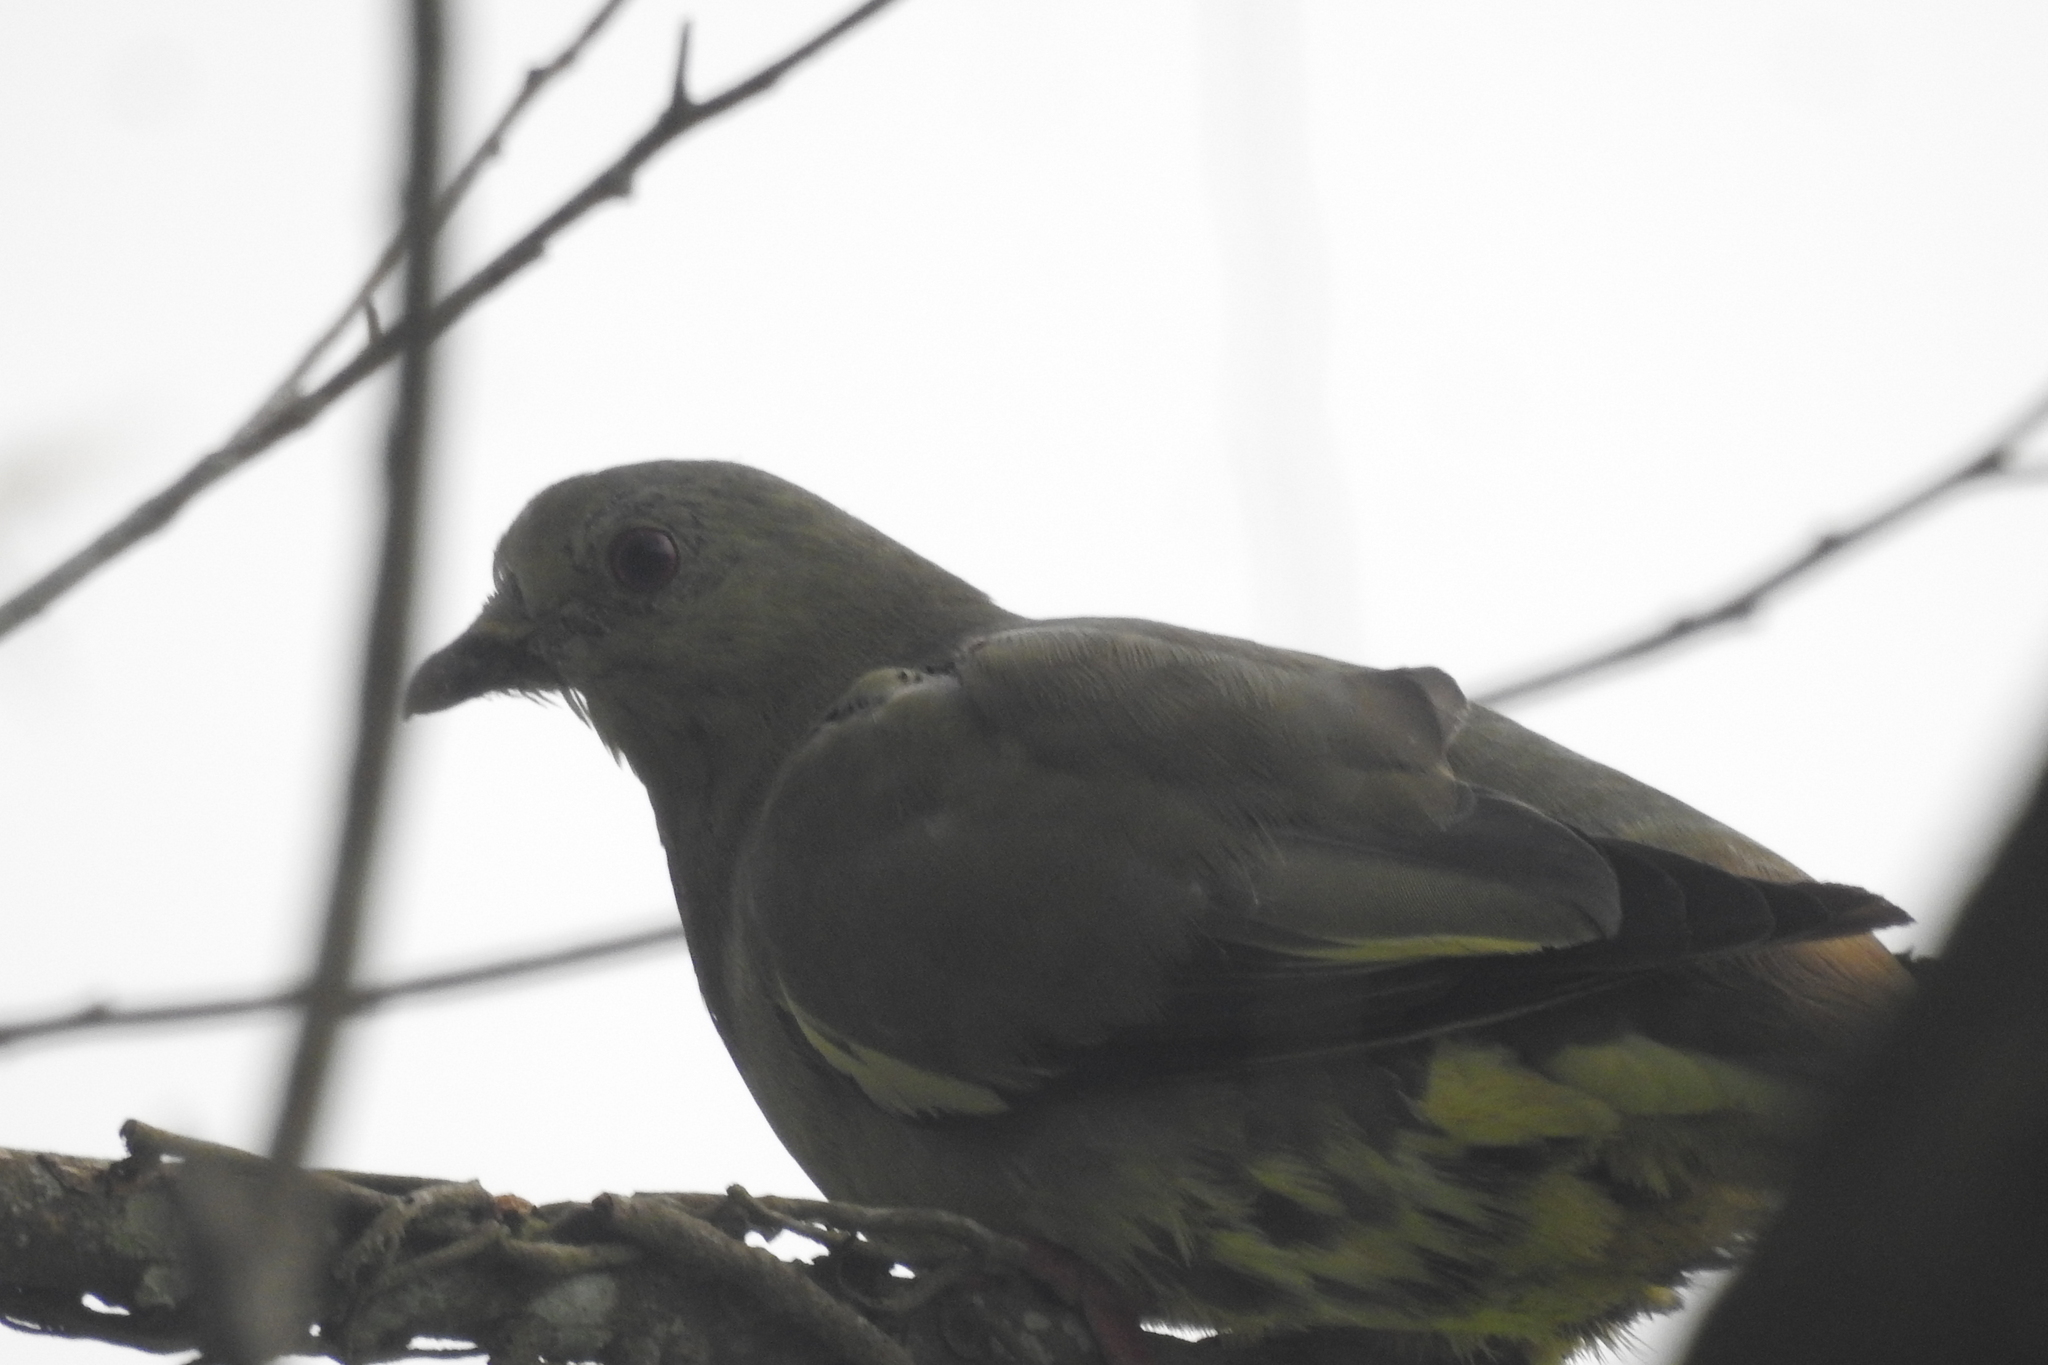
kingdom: Animalia
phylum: Chordata
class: Aves
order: Columbiformes
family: Columbidae
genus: Treron
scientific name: Treron vernans
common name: Pink-necked green pigeon
